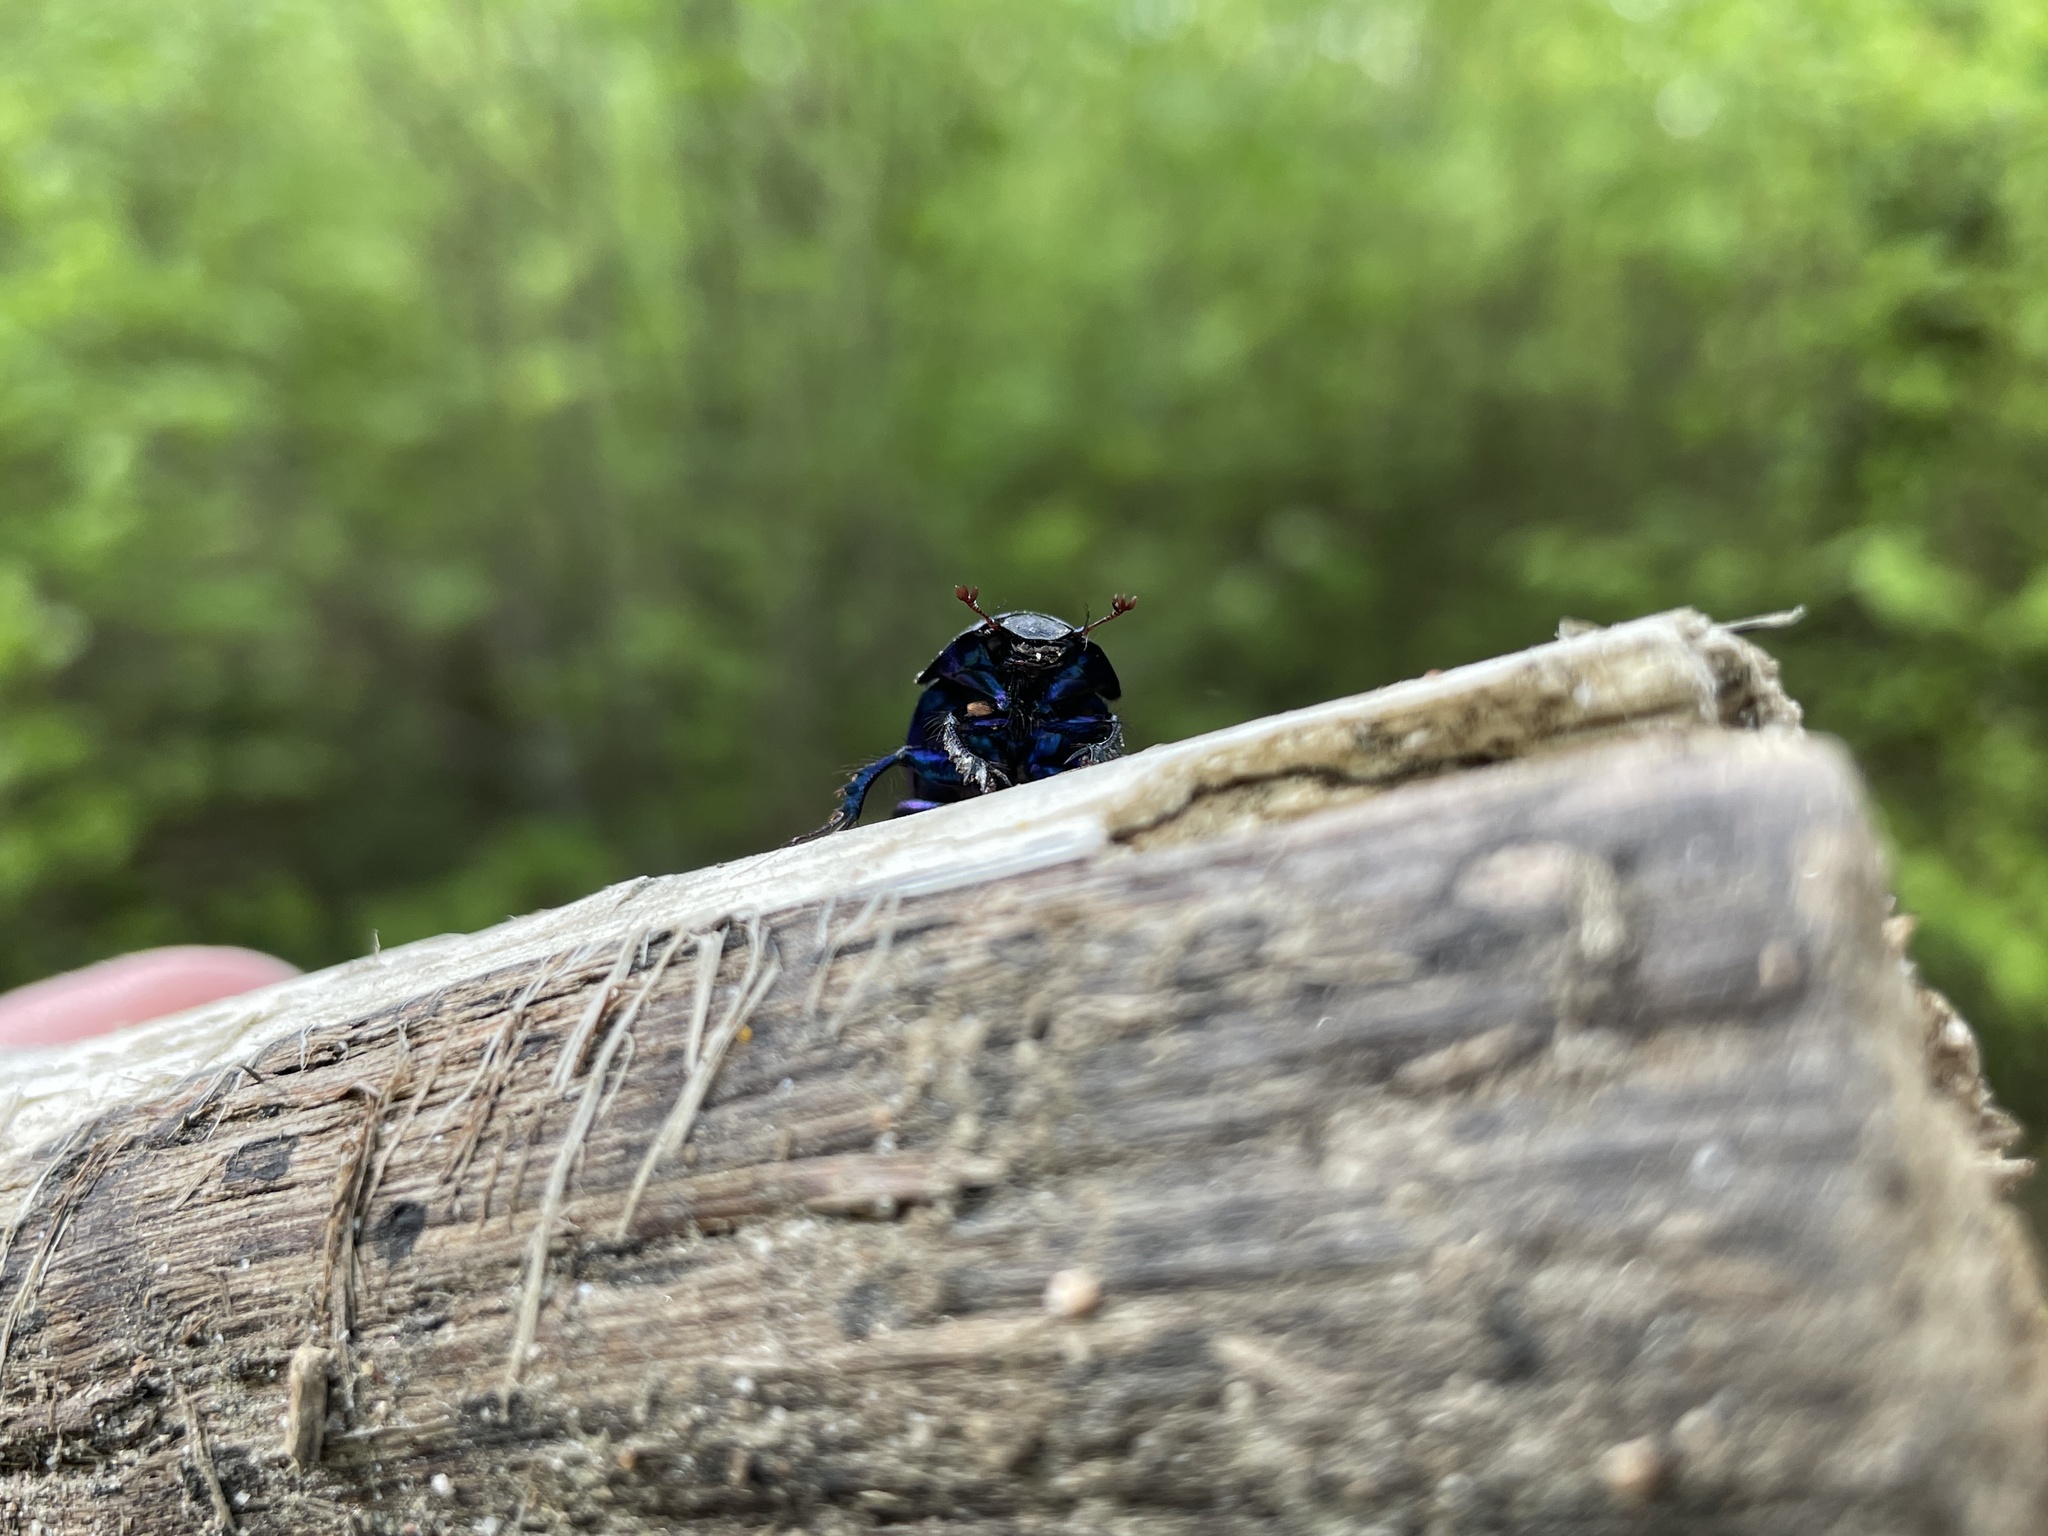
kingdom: Animalia
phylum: Arthropoda
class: Insecta
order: Coleoptera
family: Geotrupidae
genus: Anoplotrupes
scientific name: Anoplotrupes stercorosus
